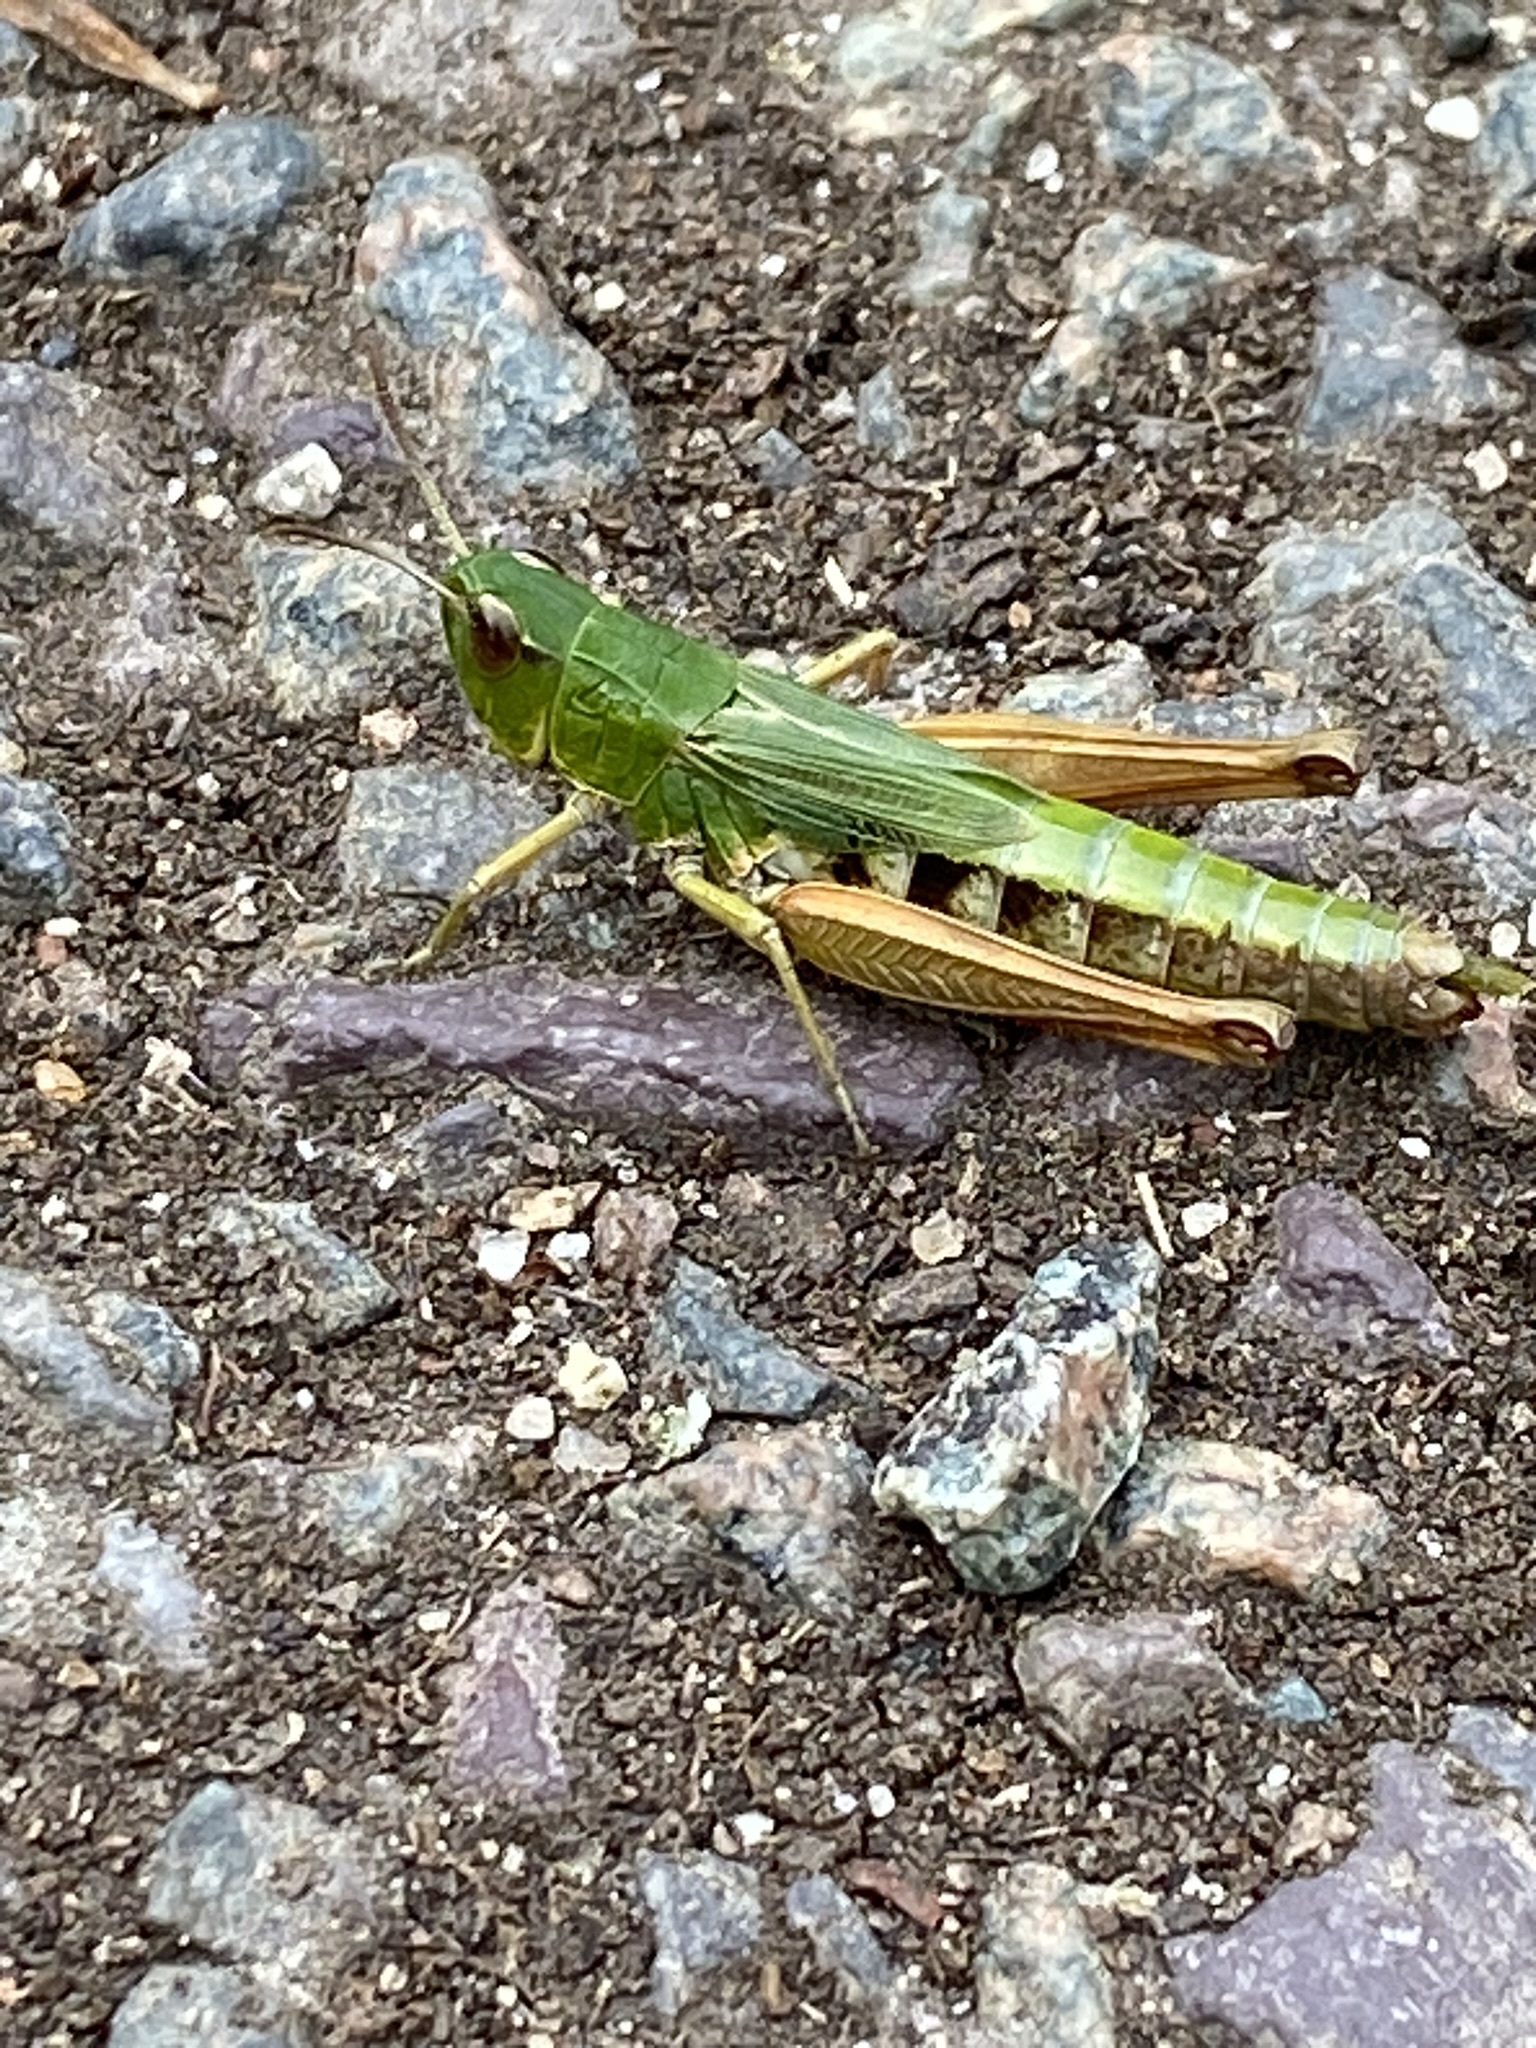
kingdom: Animalia
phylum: Arthropoda
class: Insecta
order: Orthoptera
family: Acrididae
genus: Pseudochorthippus
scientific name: Pseudochorthippus parallelus
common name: Meadow grasshopper
